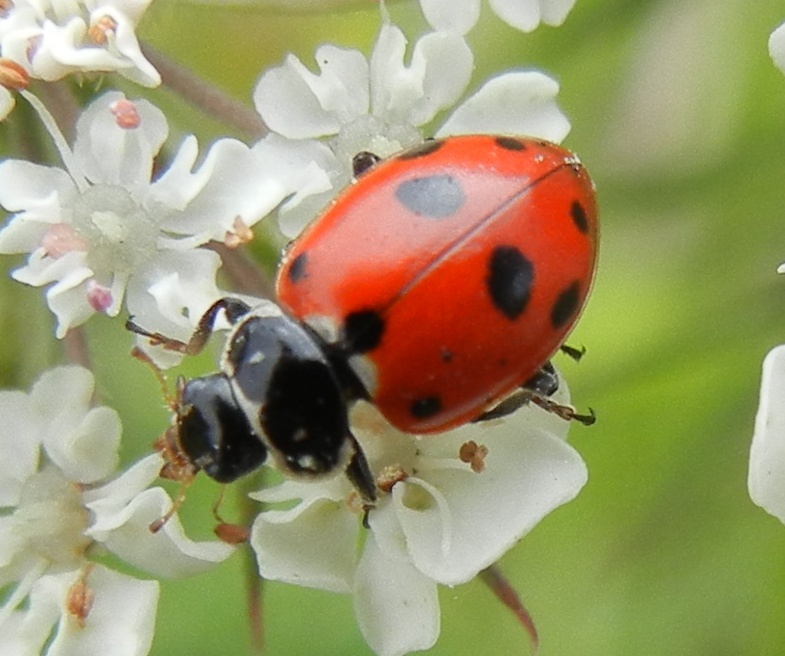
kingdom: Animalia
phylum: Arthropoda
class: Insecta
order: Coleoptera
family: Coccinellidae
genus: Hippodamia
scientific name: Hippodamia variegata
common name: Ladybird beetle
